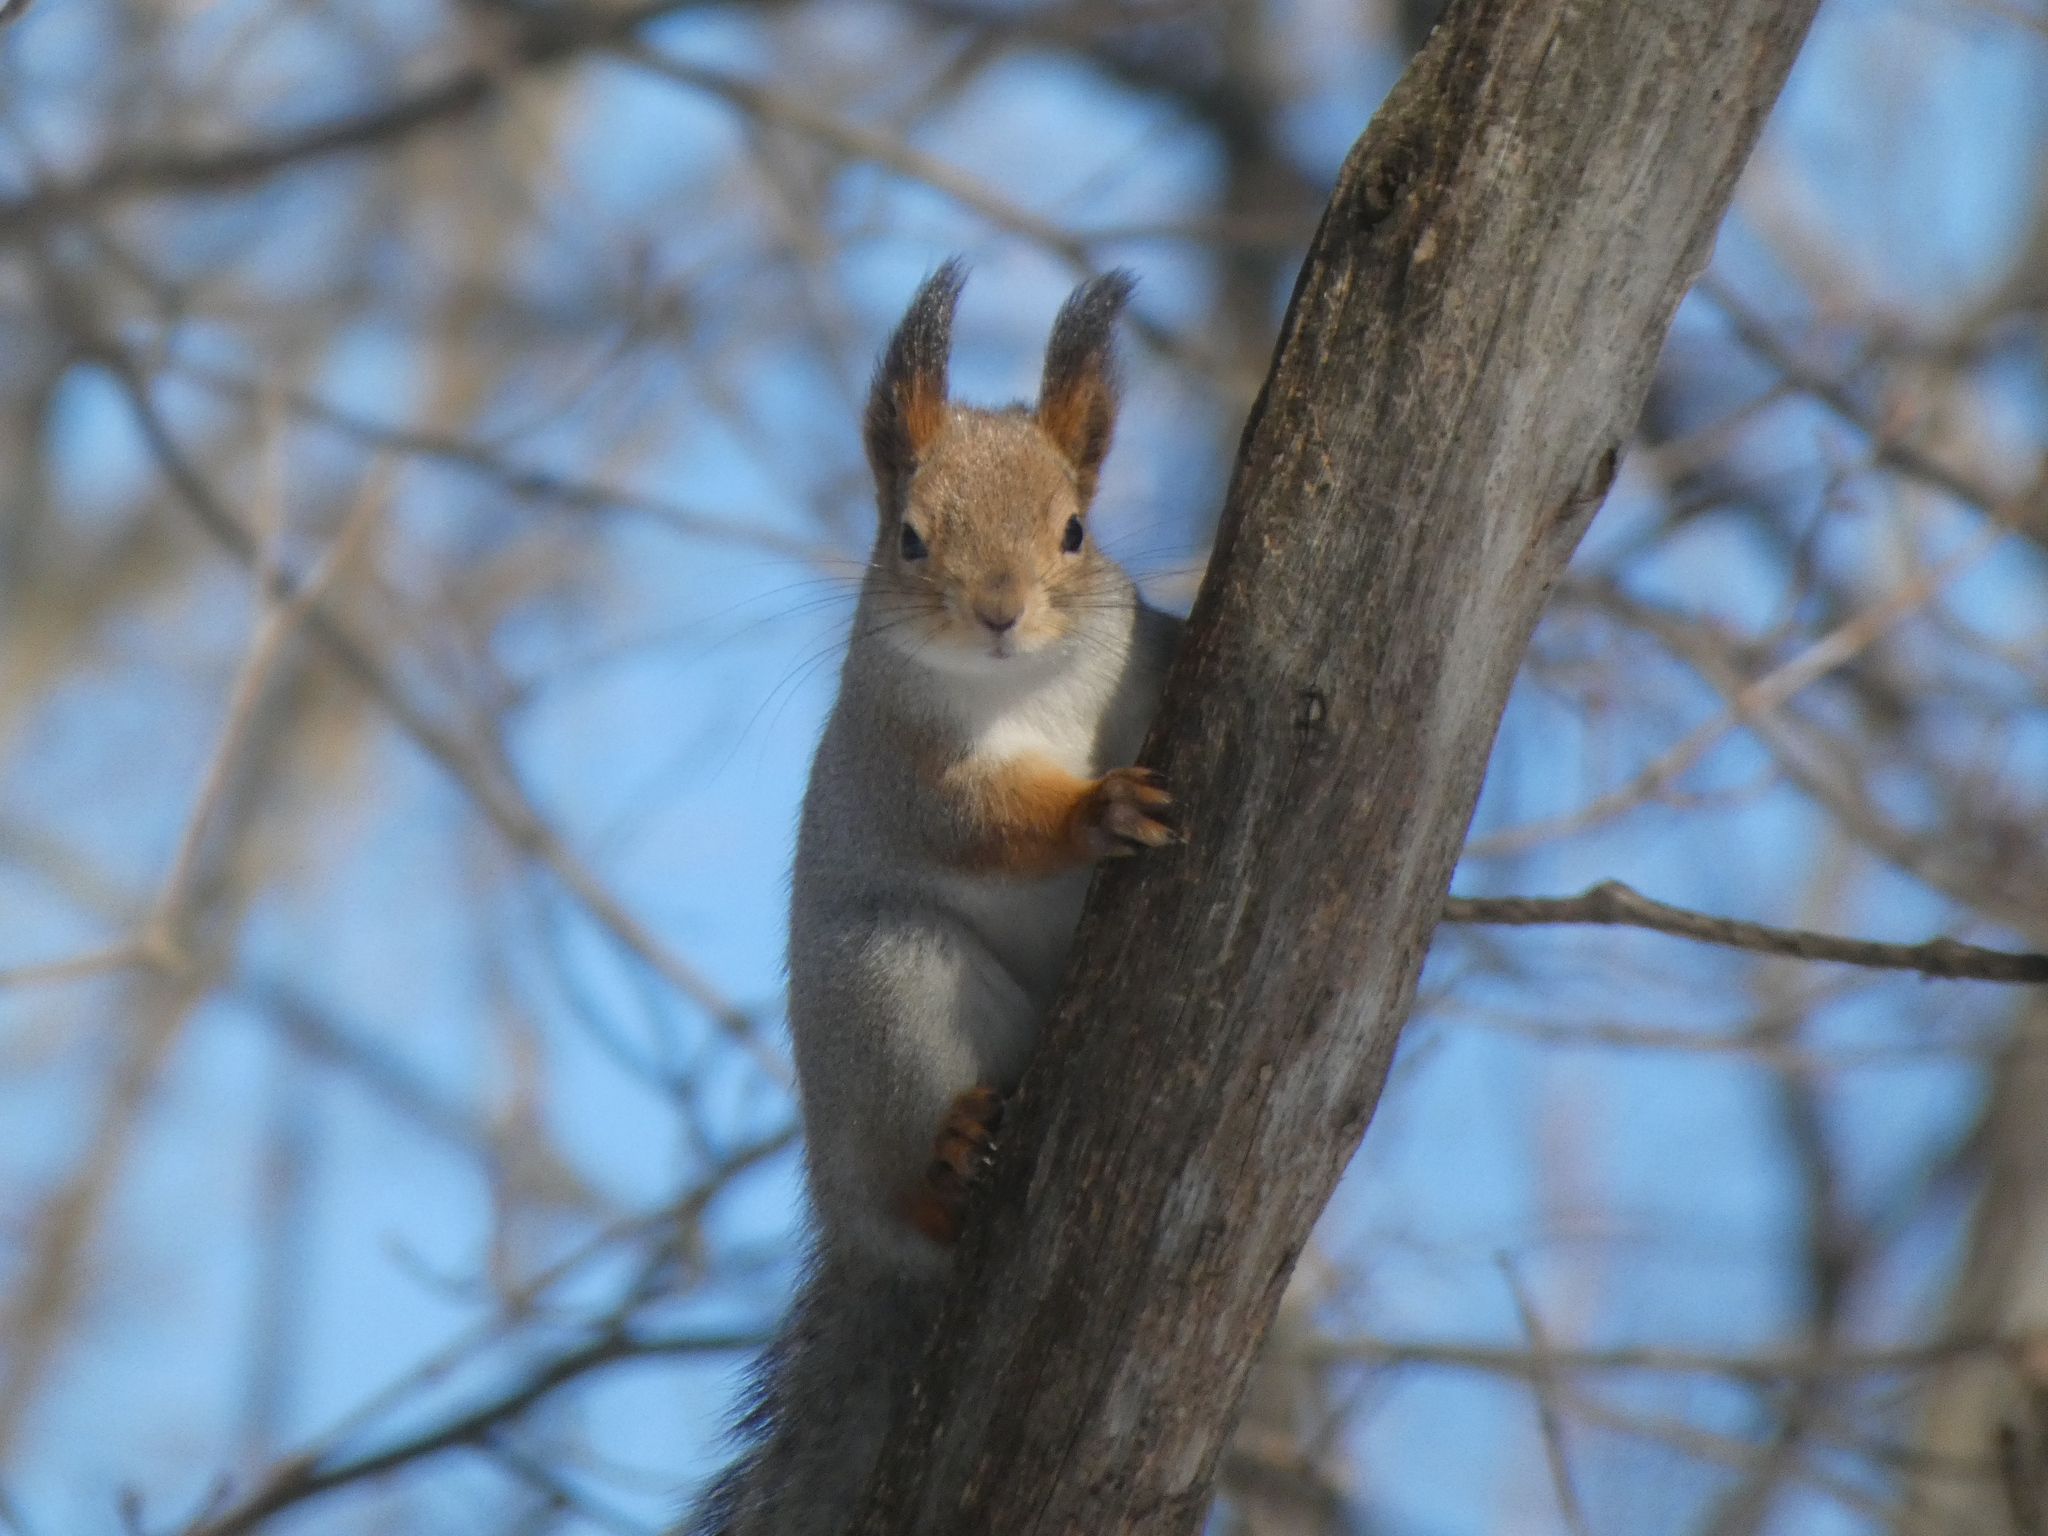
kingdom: Animalia
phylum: Chordata
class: Mammalia
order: Rodentia
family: Sciuridae
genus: Sciurus
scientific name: Sciurus vulgaris
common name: Eurasian red squirrel
